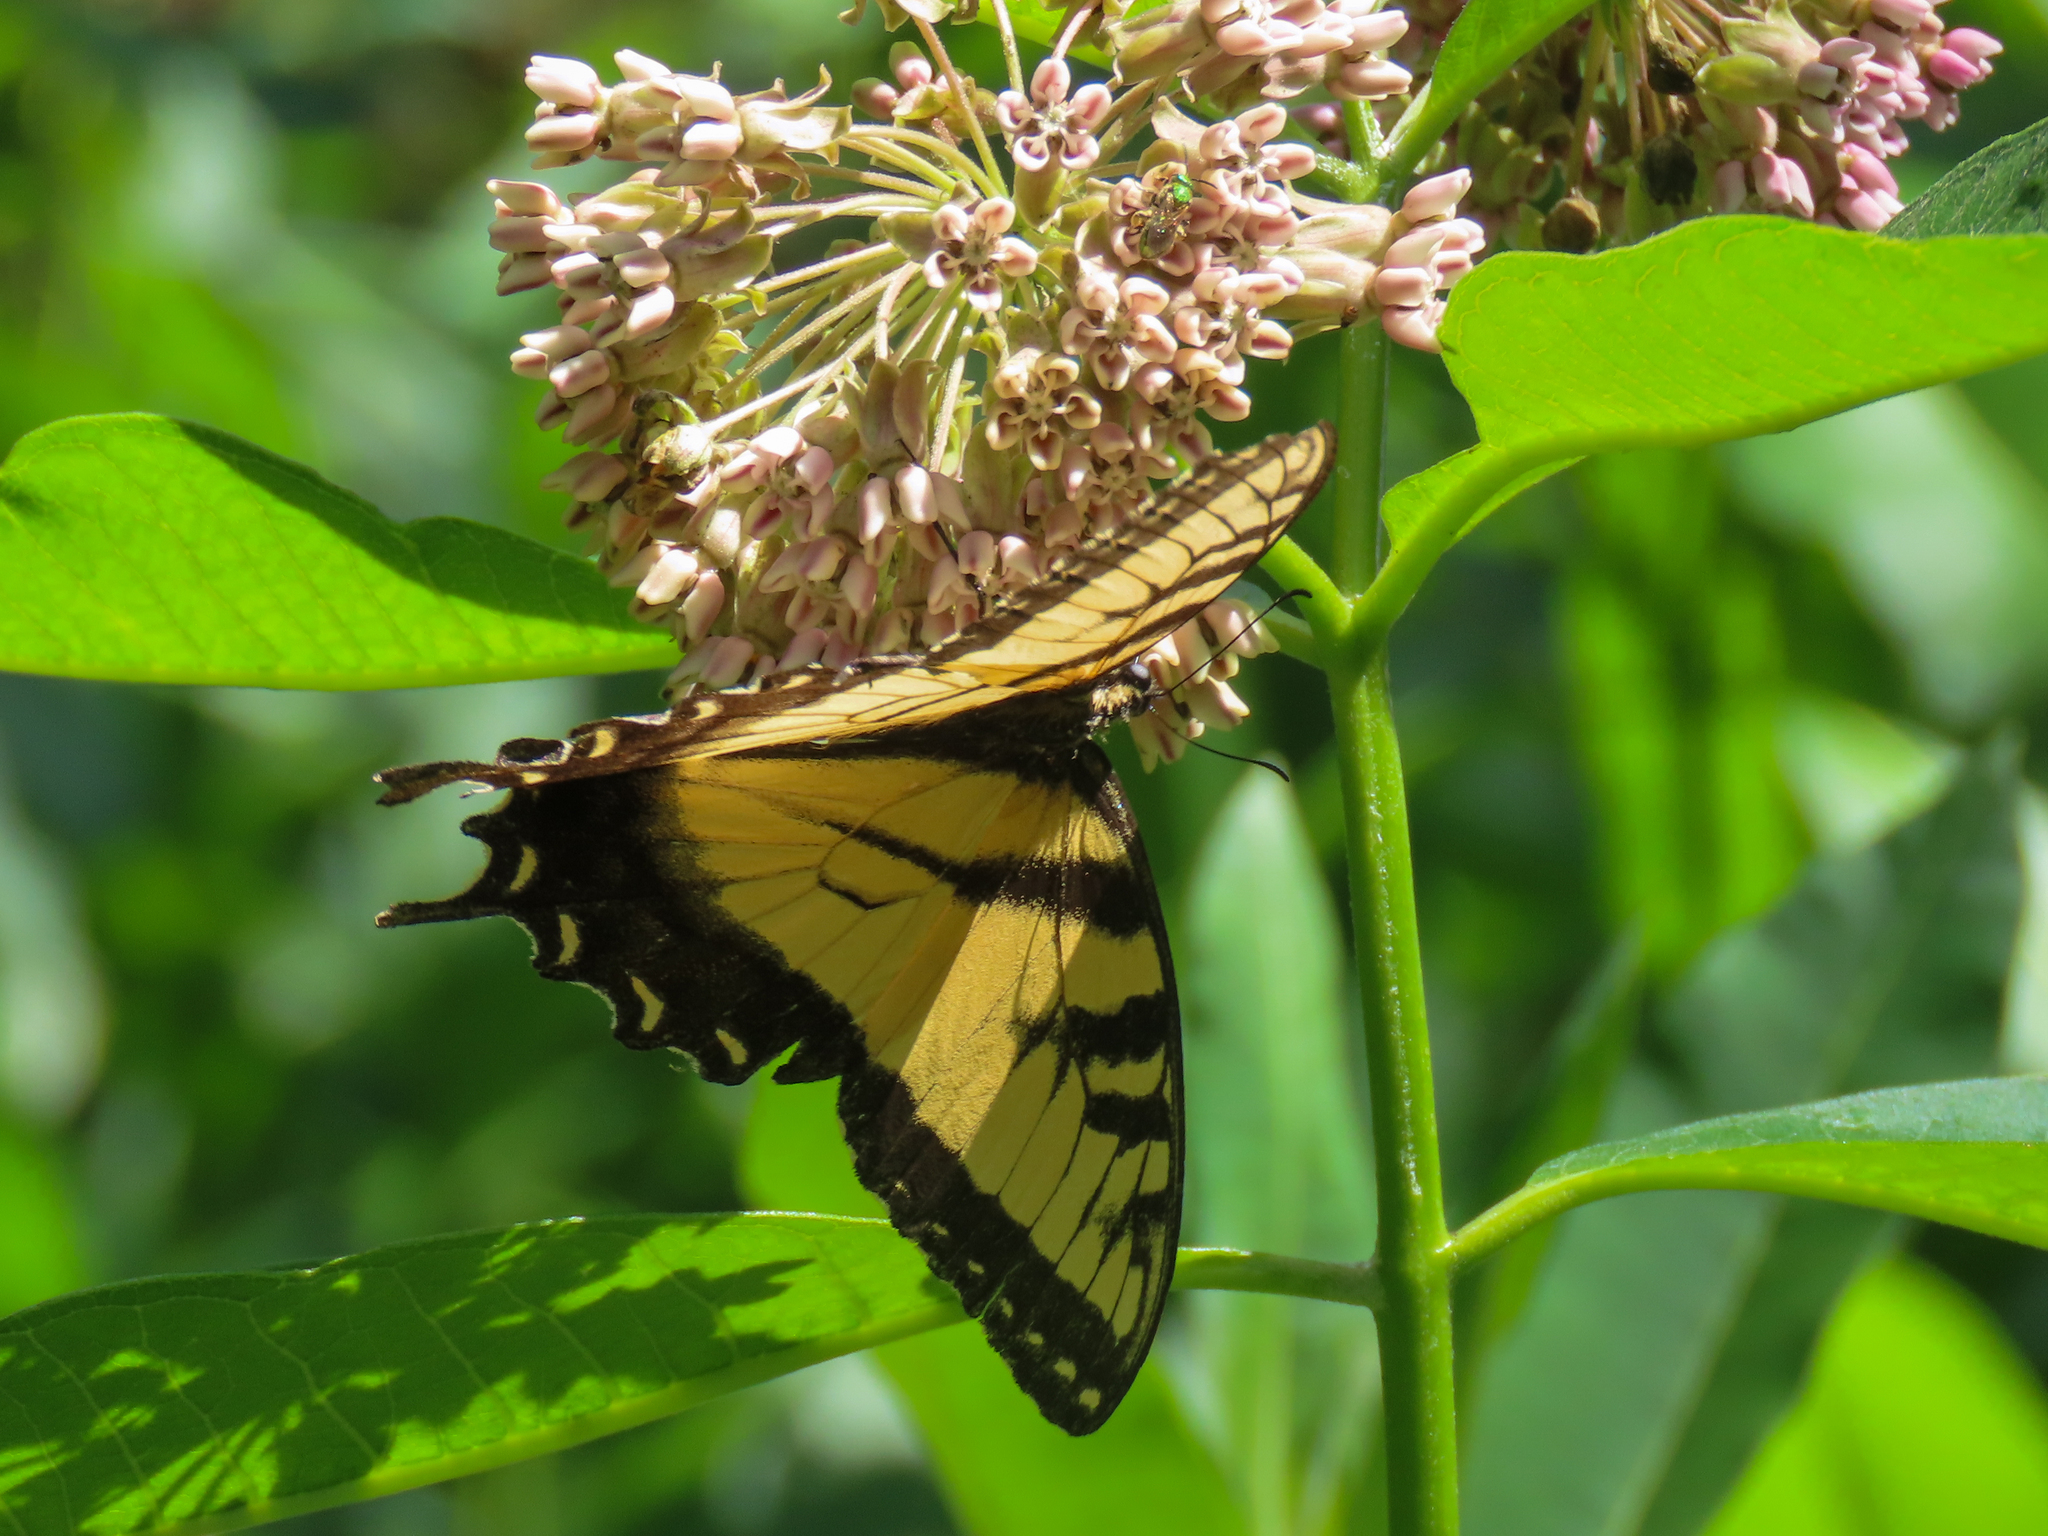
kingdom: Animalia
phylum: Arthropoda
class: Insecta
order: Lepidoptera
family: Papilionidae
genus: Papilio
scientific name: Papilio glaucus
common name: Tiger swallowtail
